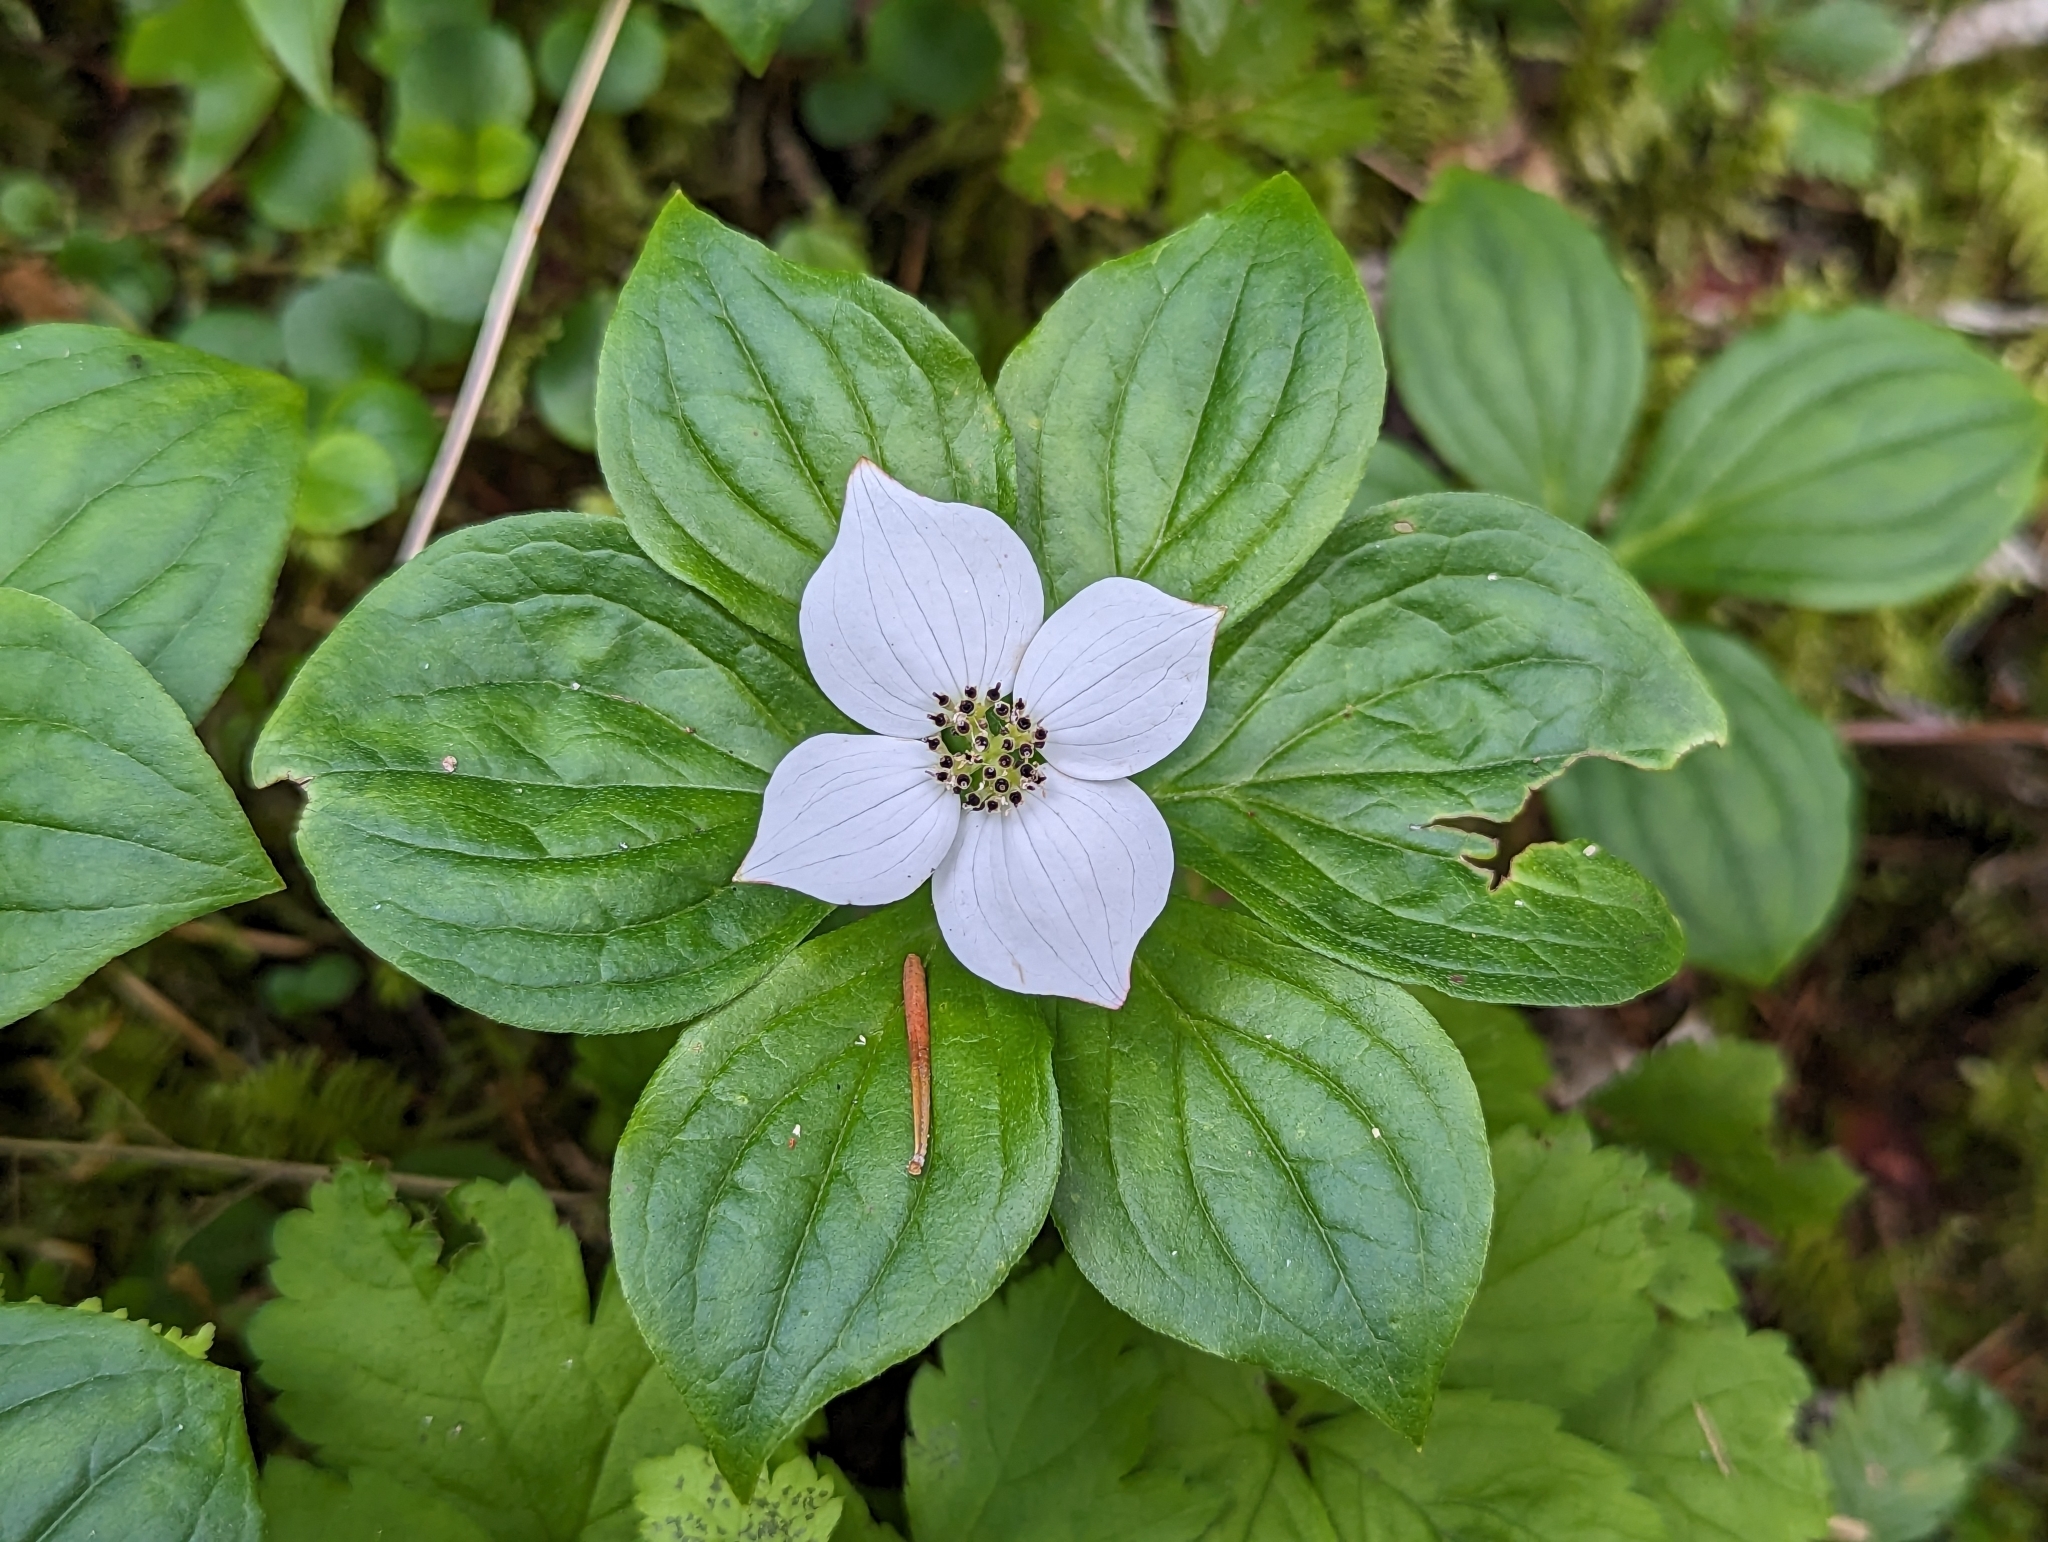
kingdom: Plantae
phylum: Tracheophyta
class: Magnoliopsida
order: Cornales
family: Cornaceae
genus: Cornus
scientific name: Cornus canadensis
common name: Creeping dogwood
